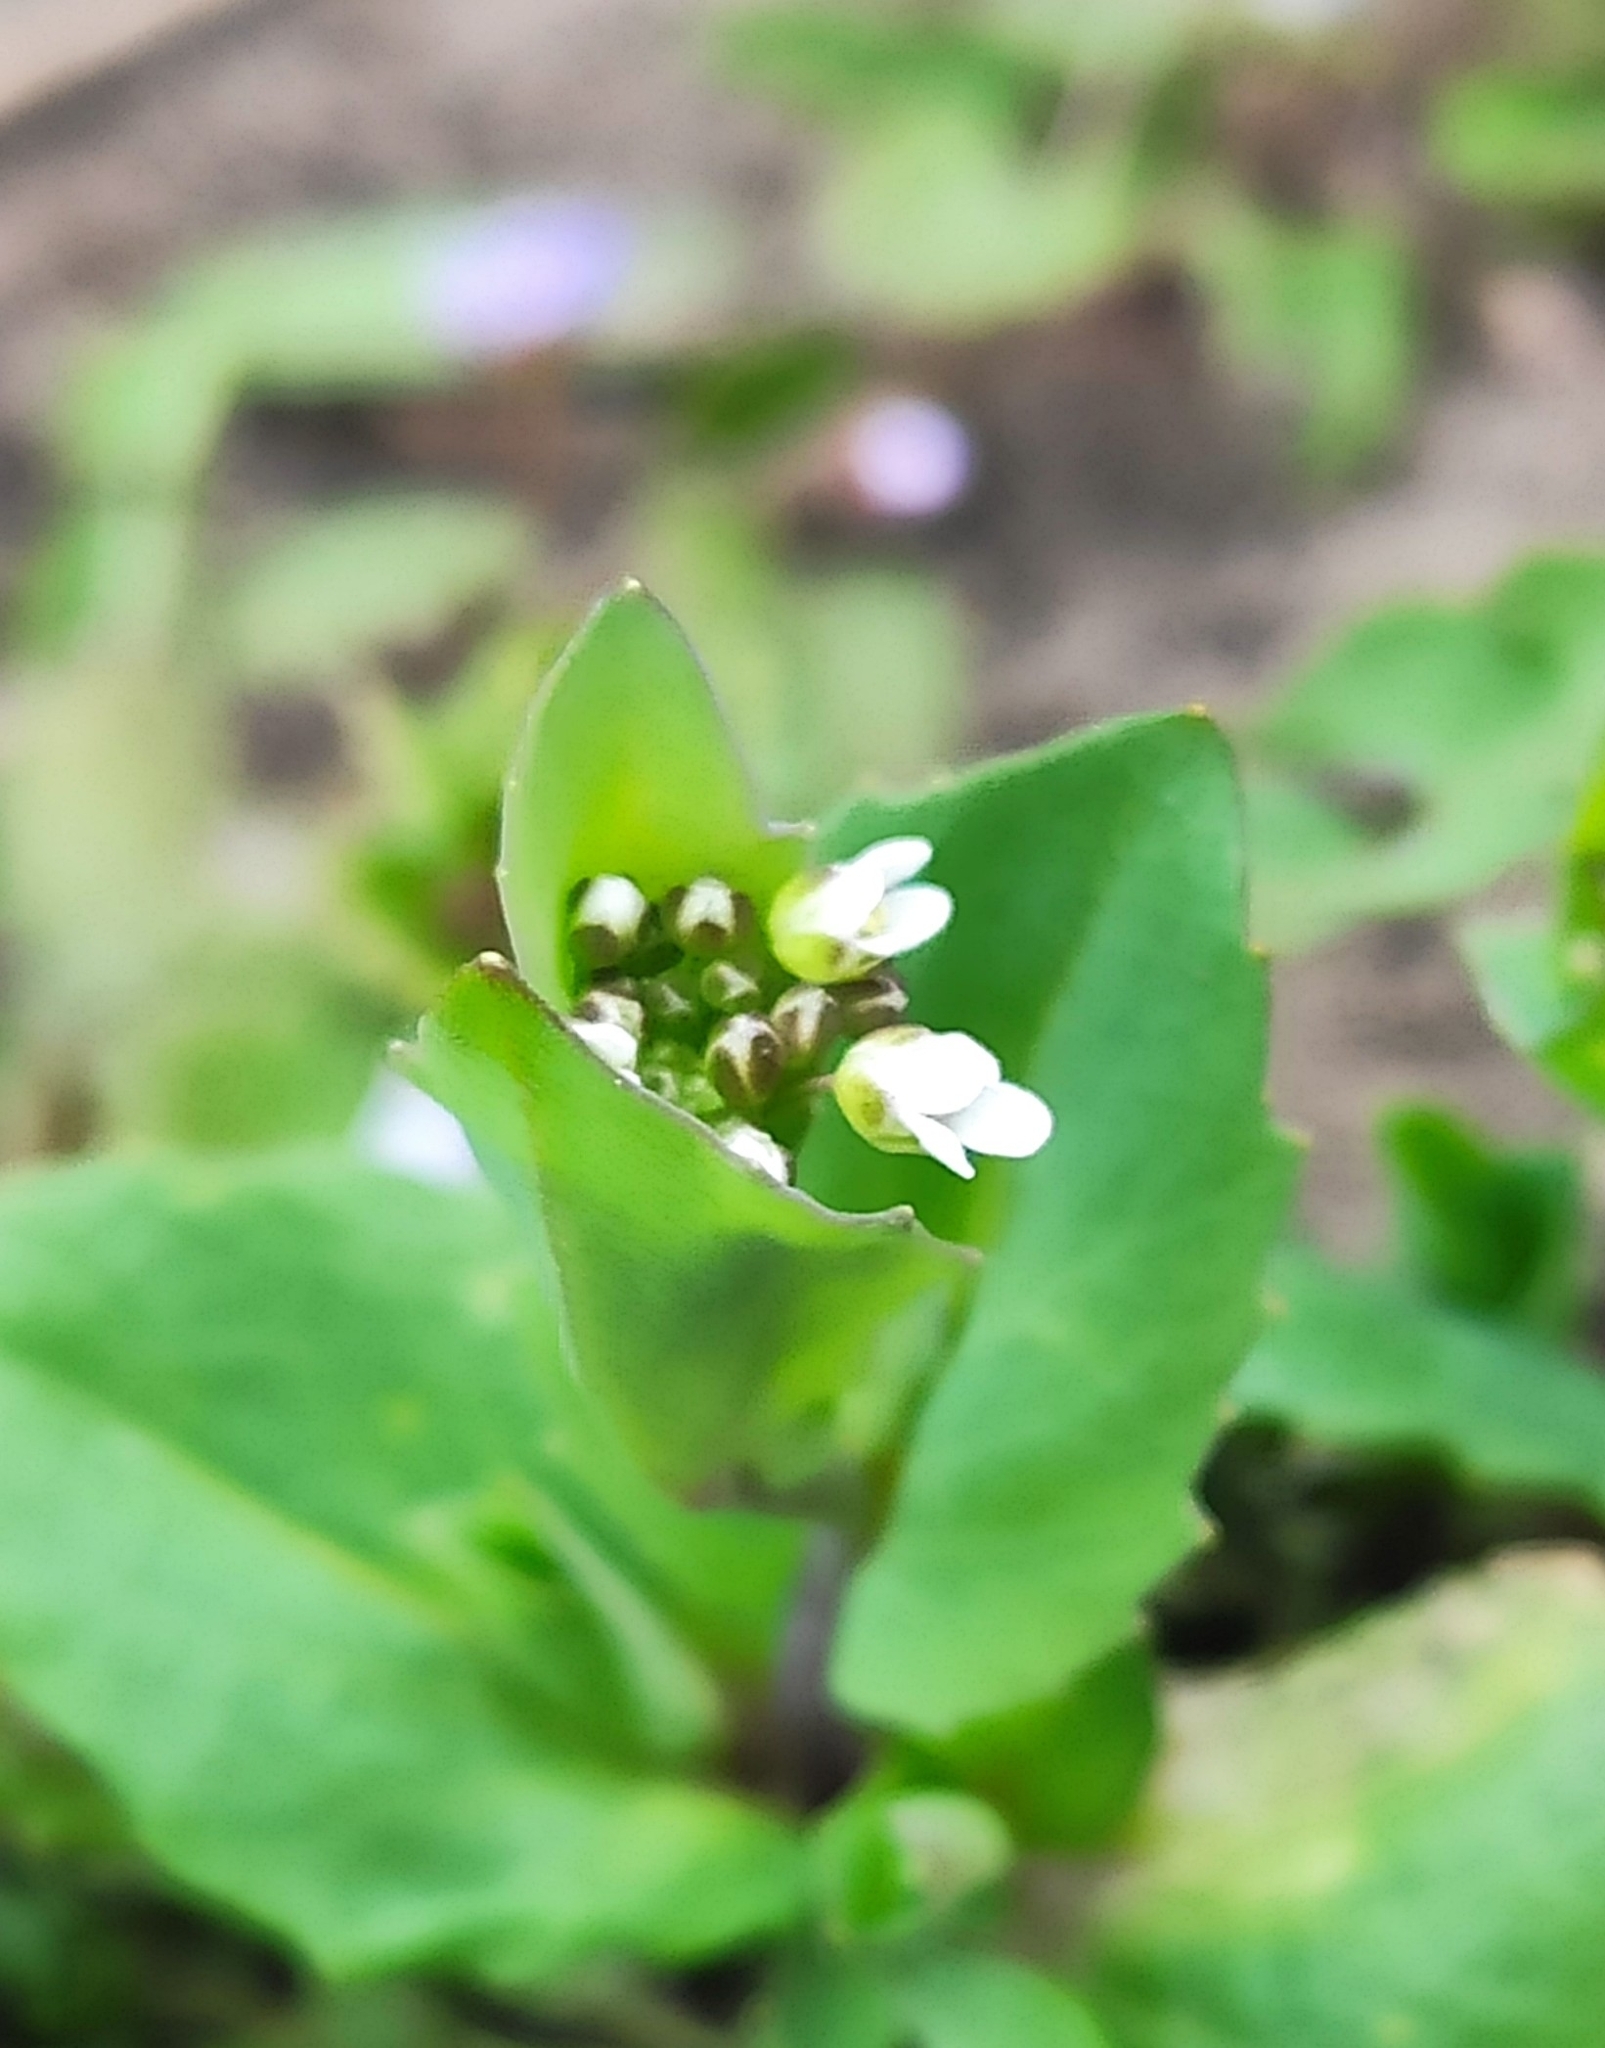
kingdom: Plantae
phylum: Tracheophyta
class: Magnoliopsida
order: Brassicales
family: Brassicaceae
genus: Noccaea
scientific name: Noccaea perfoliata
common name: Perfoliate pennycress
